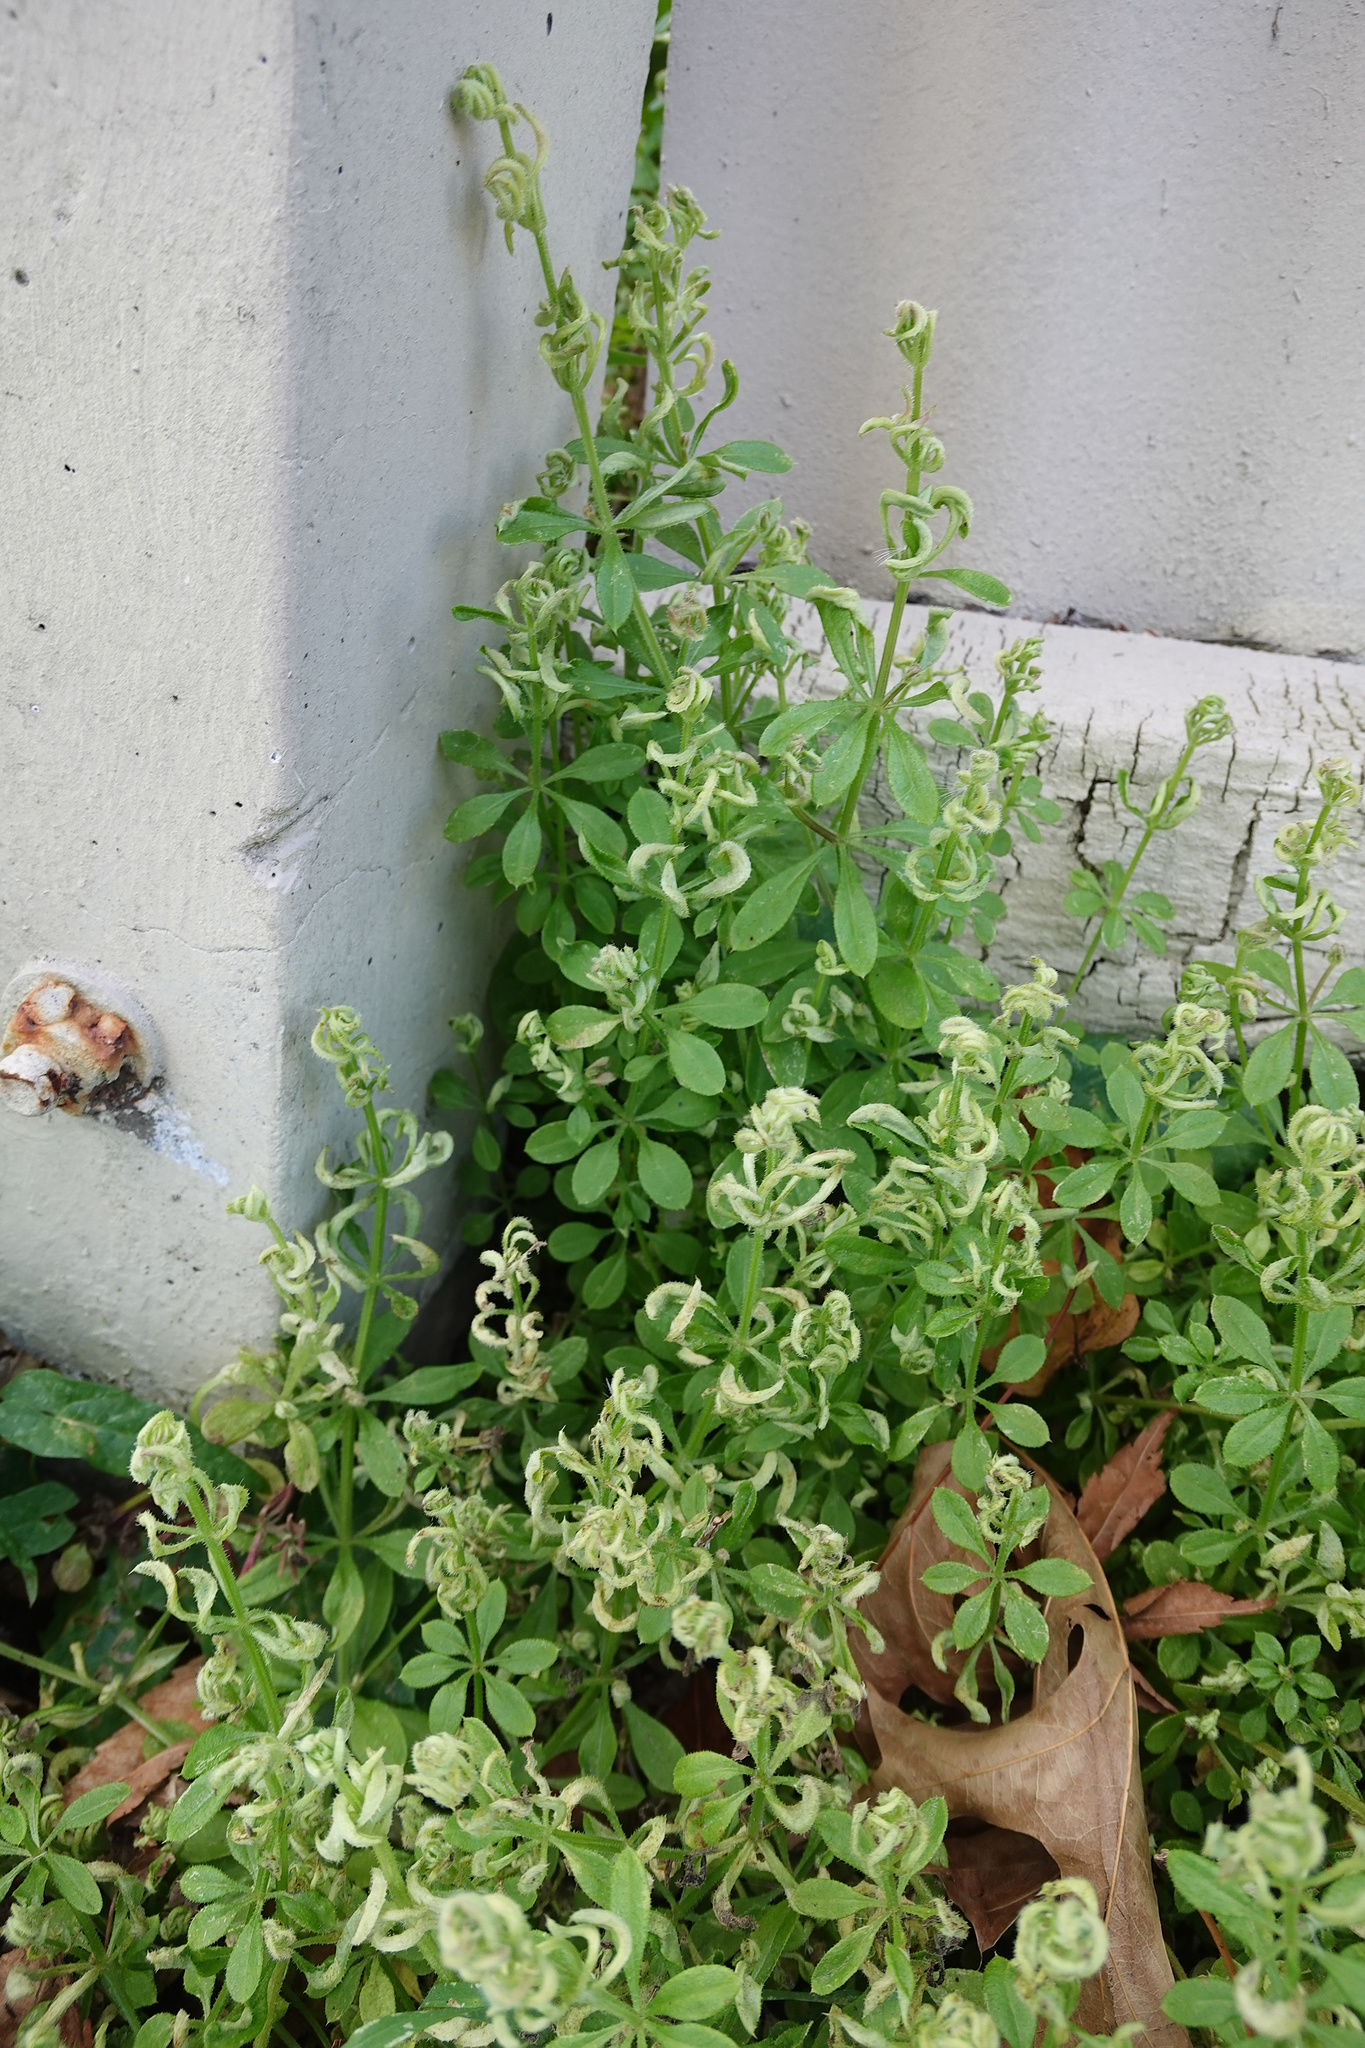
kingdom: Animalia
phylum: Arthropoda
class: Arachnida
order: Trombidiformes
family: Eriophyidae
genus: Cecidophyes
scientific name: Cecidophyes rouhollahi
